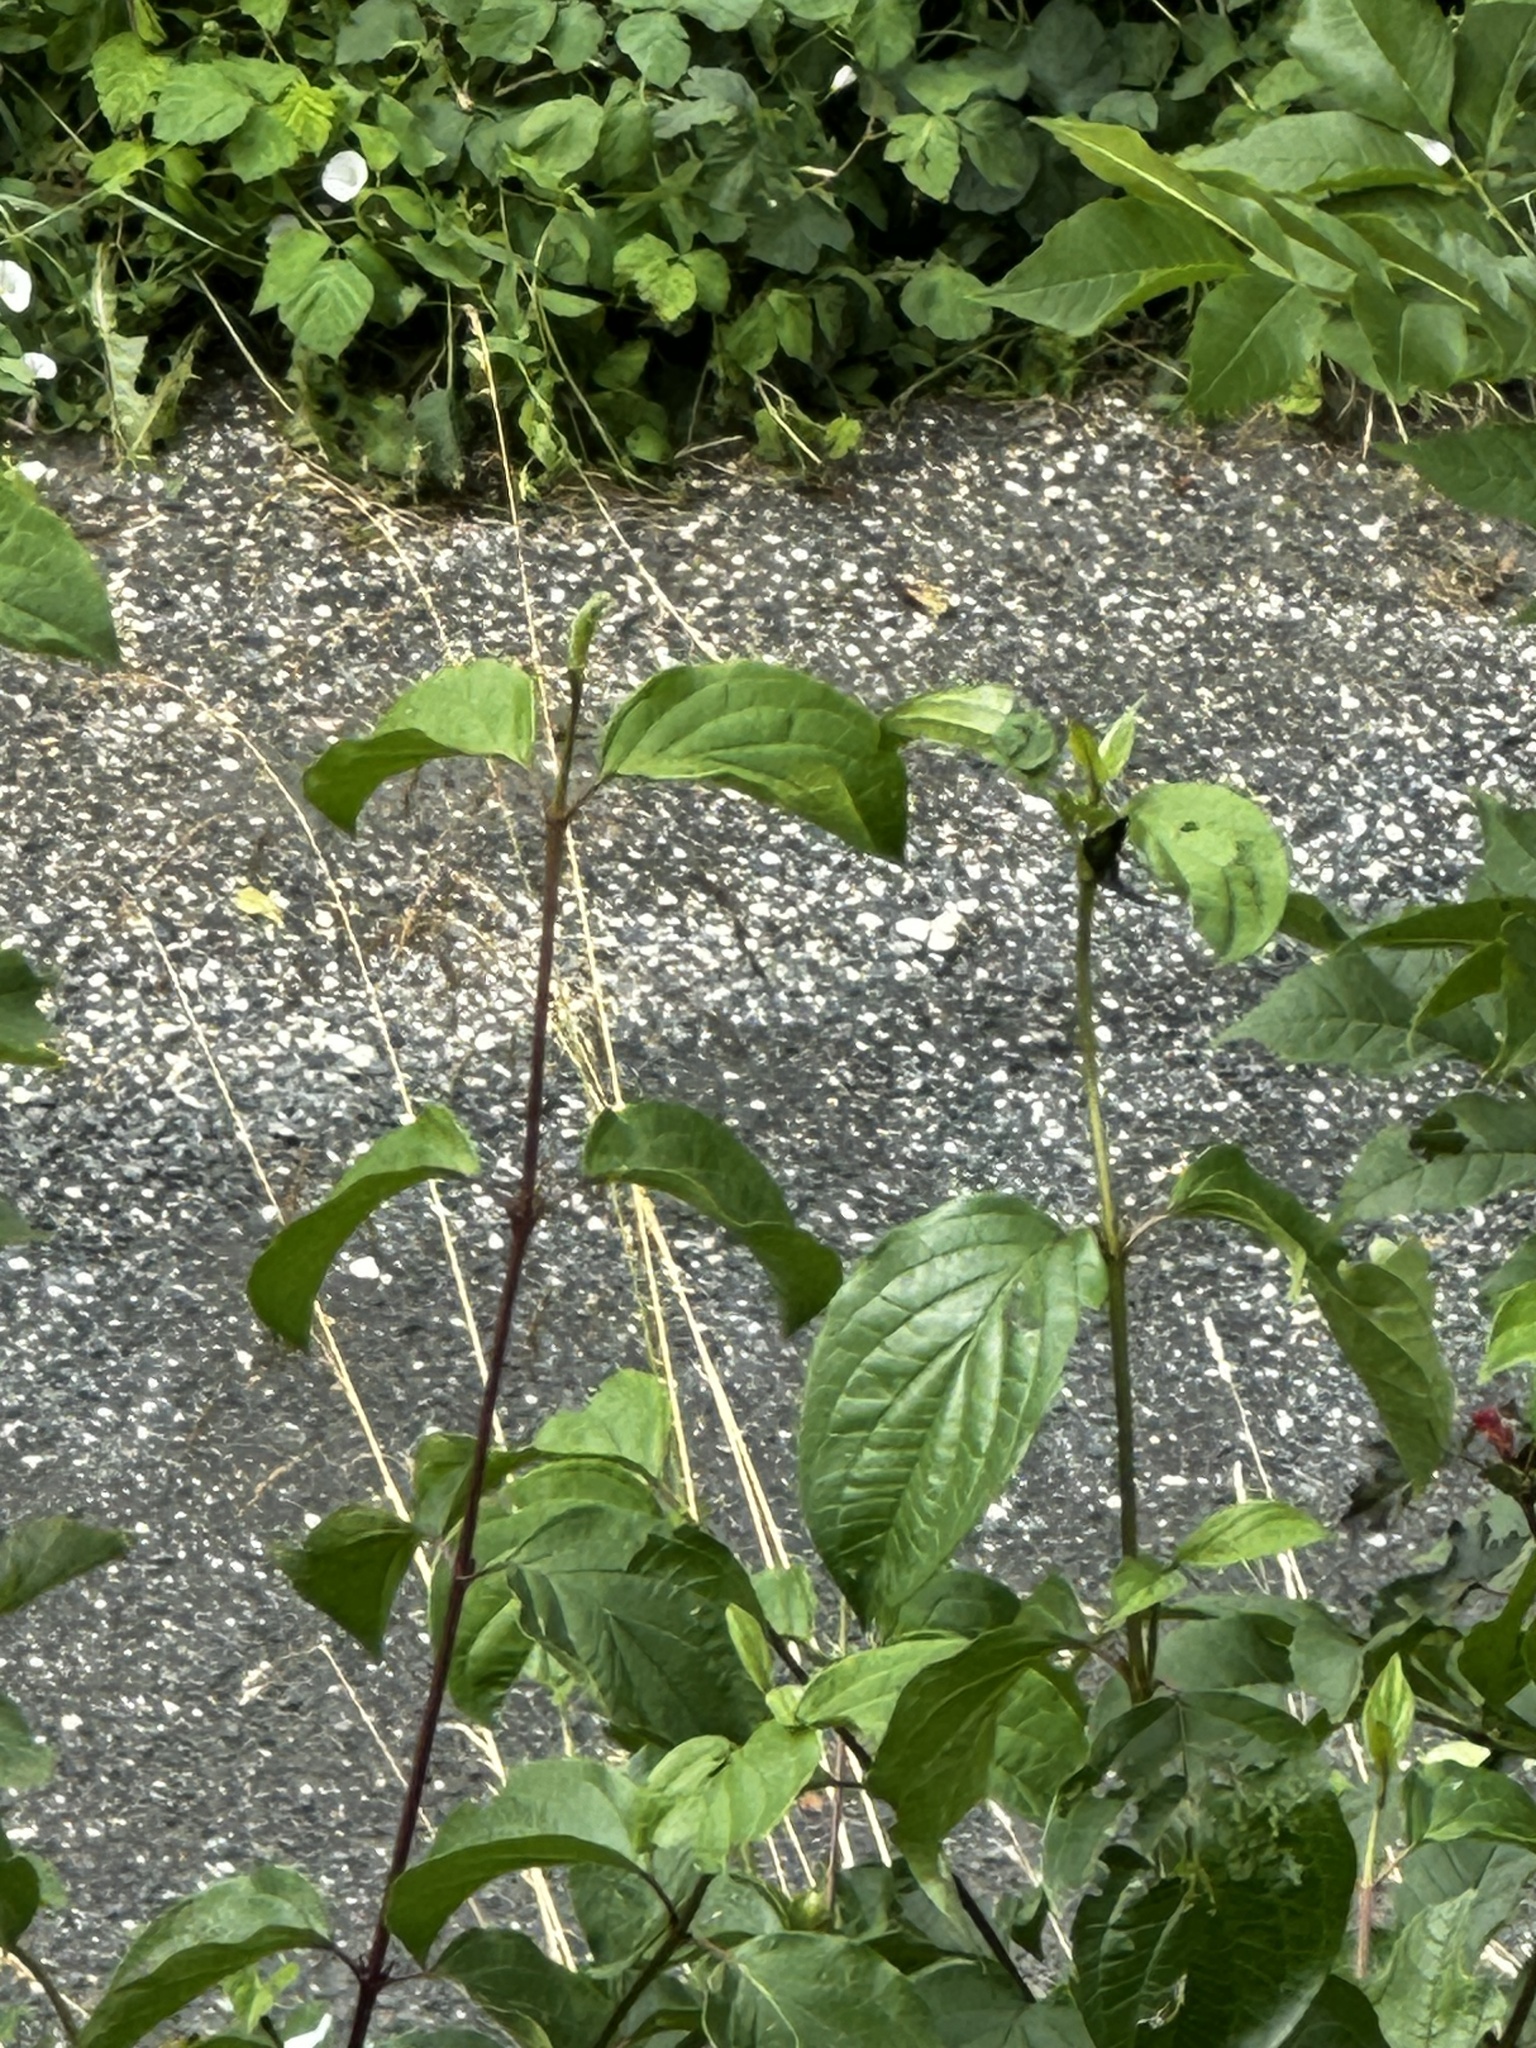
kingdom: Plantae
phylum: Tracheophyta
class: Magnoliopsida
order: Cornales
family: Cornaceae
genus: Cornus
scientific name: Cornus sanguinea
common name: Dogwood
